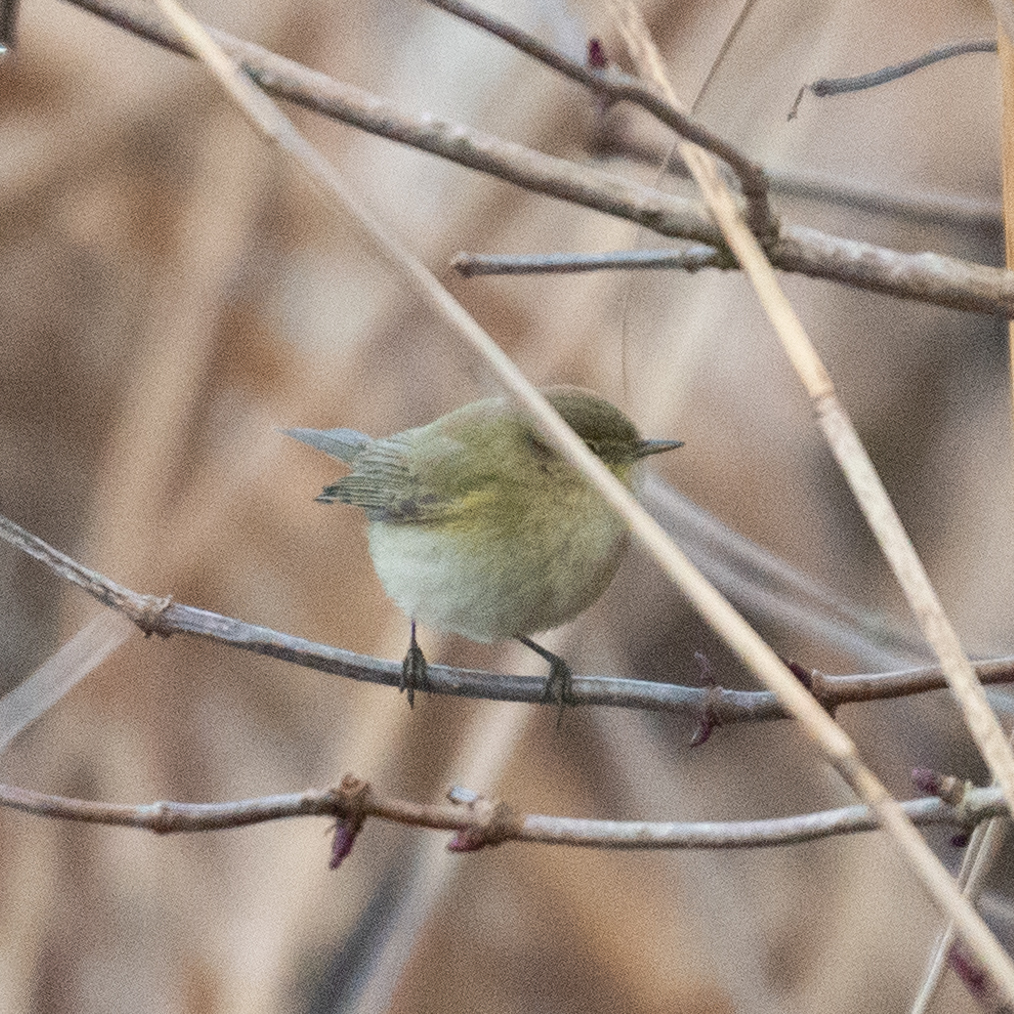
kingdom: Animalia
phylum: Chordata
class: Aves
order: Passeriformes
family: Phylloscopidae
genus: Phylloscopus
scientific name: Phylloscopus collybita
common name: Common chiffchaff
